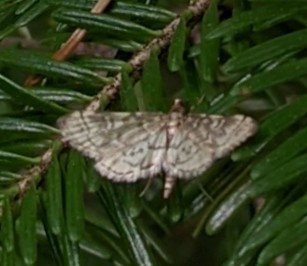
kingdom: Animalia
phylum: Arthropoda
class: Insecta
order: Lepidoptera
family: Crambidae
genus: Anageshna
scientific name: Anageshna primordialis
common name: Yellow-spotted webworm moth
